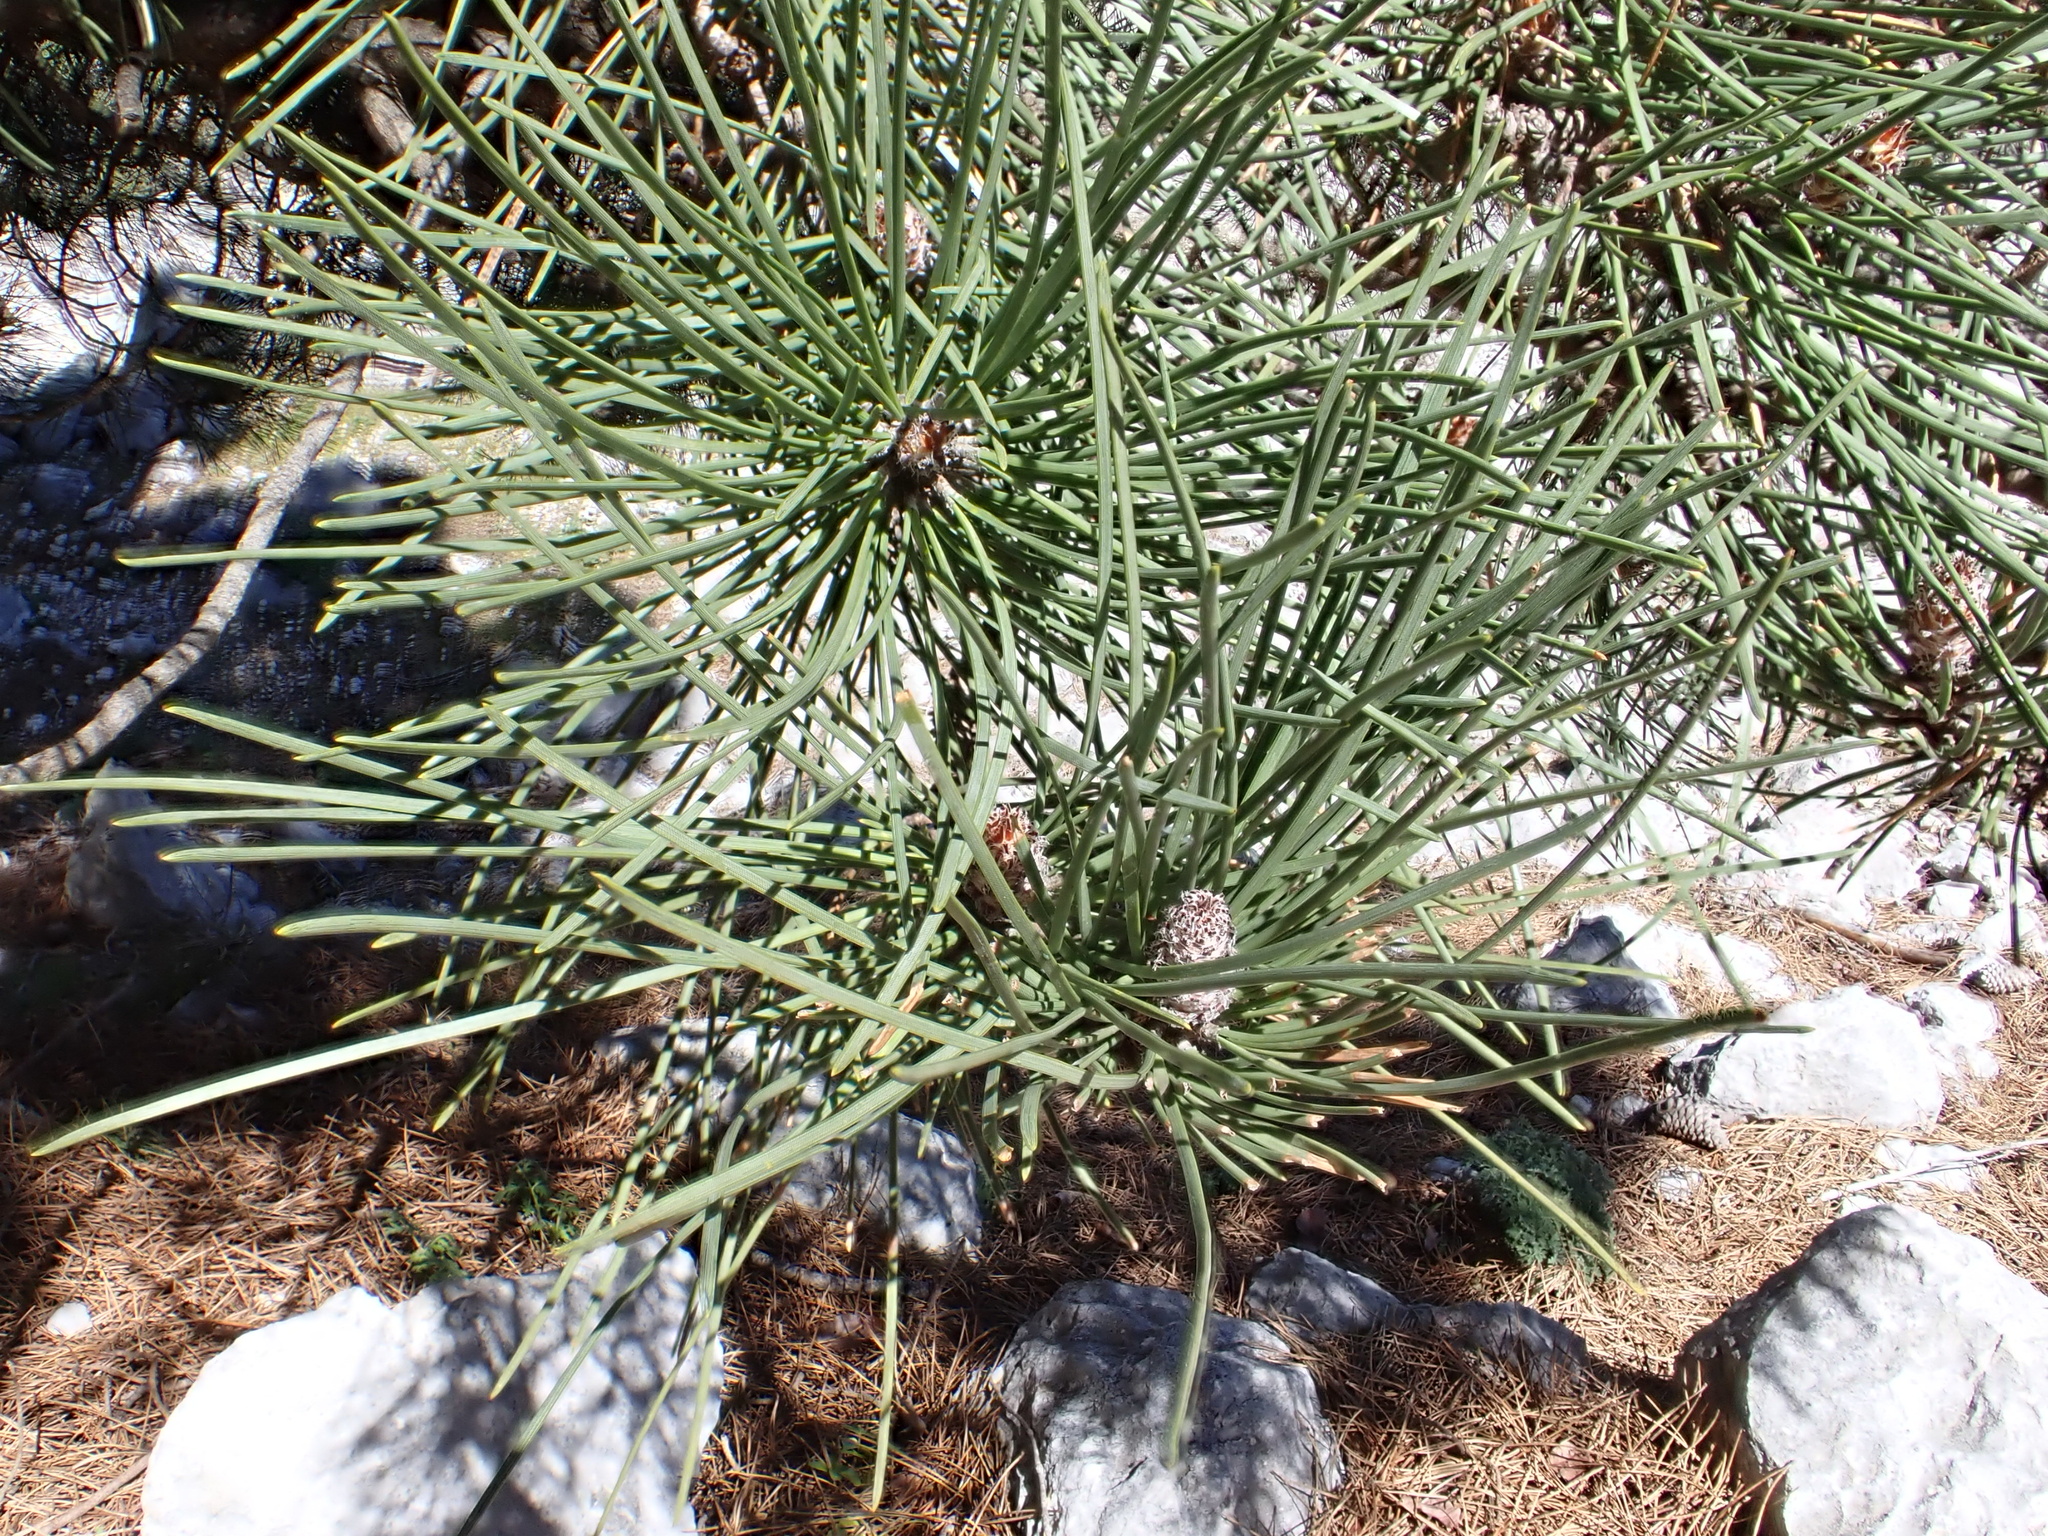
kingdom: Plantae
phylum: Tracheophyta
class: Pinopsida
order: Pinales
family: Pinaceae
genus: Pinus
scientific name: Pinus pinaster
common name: Maritime pine
